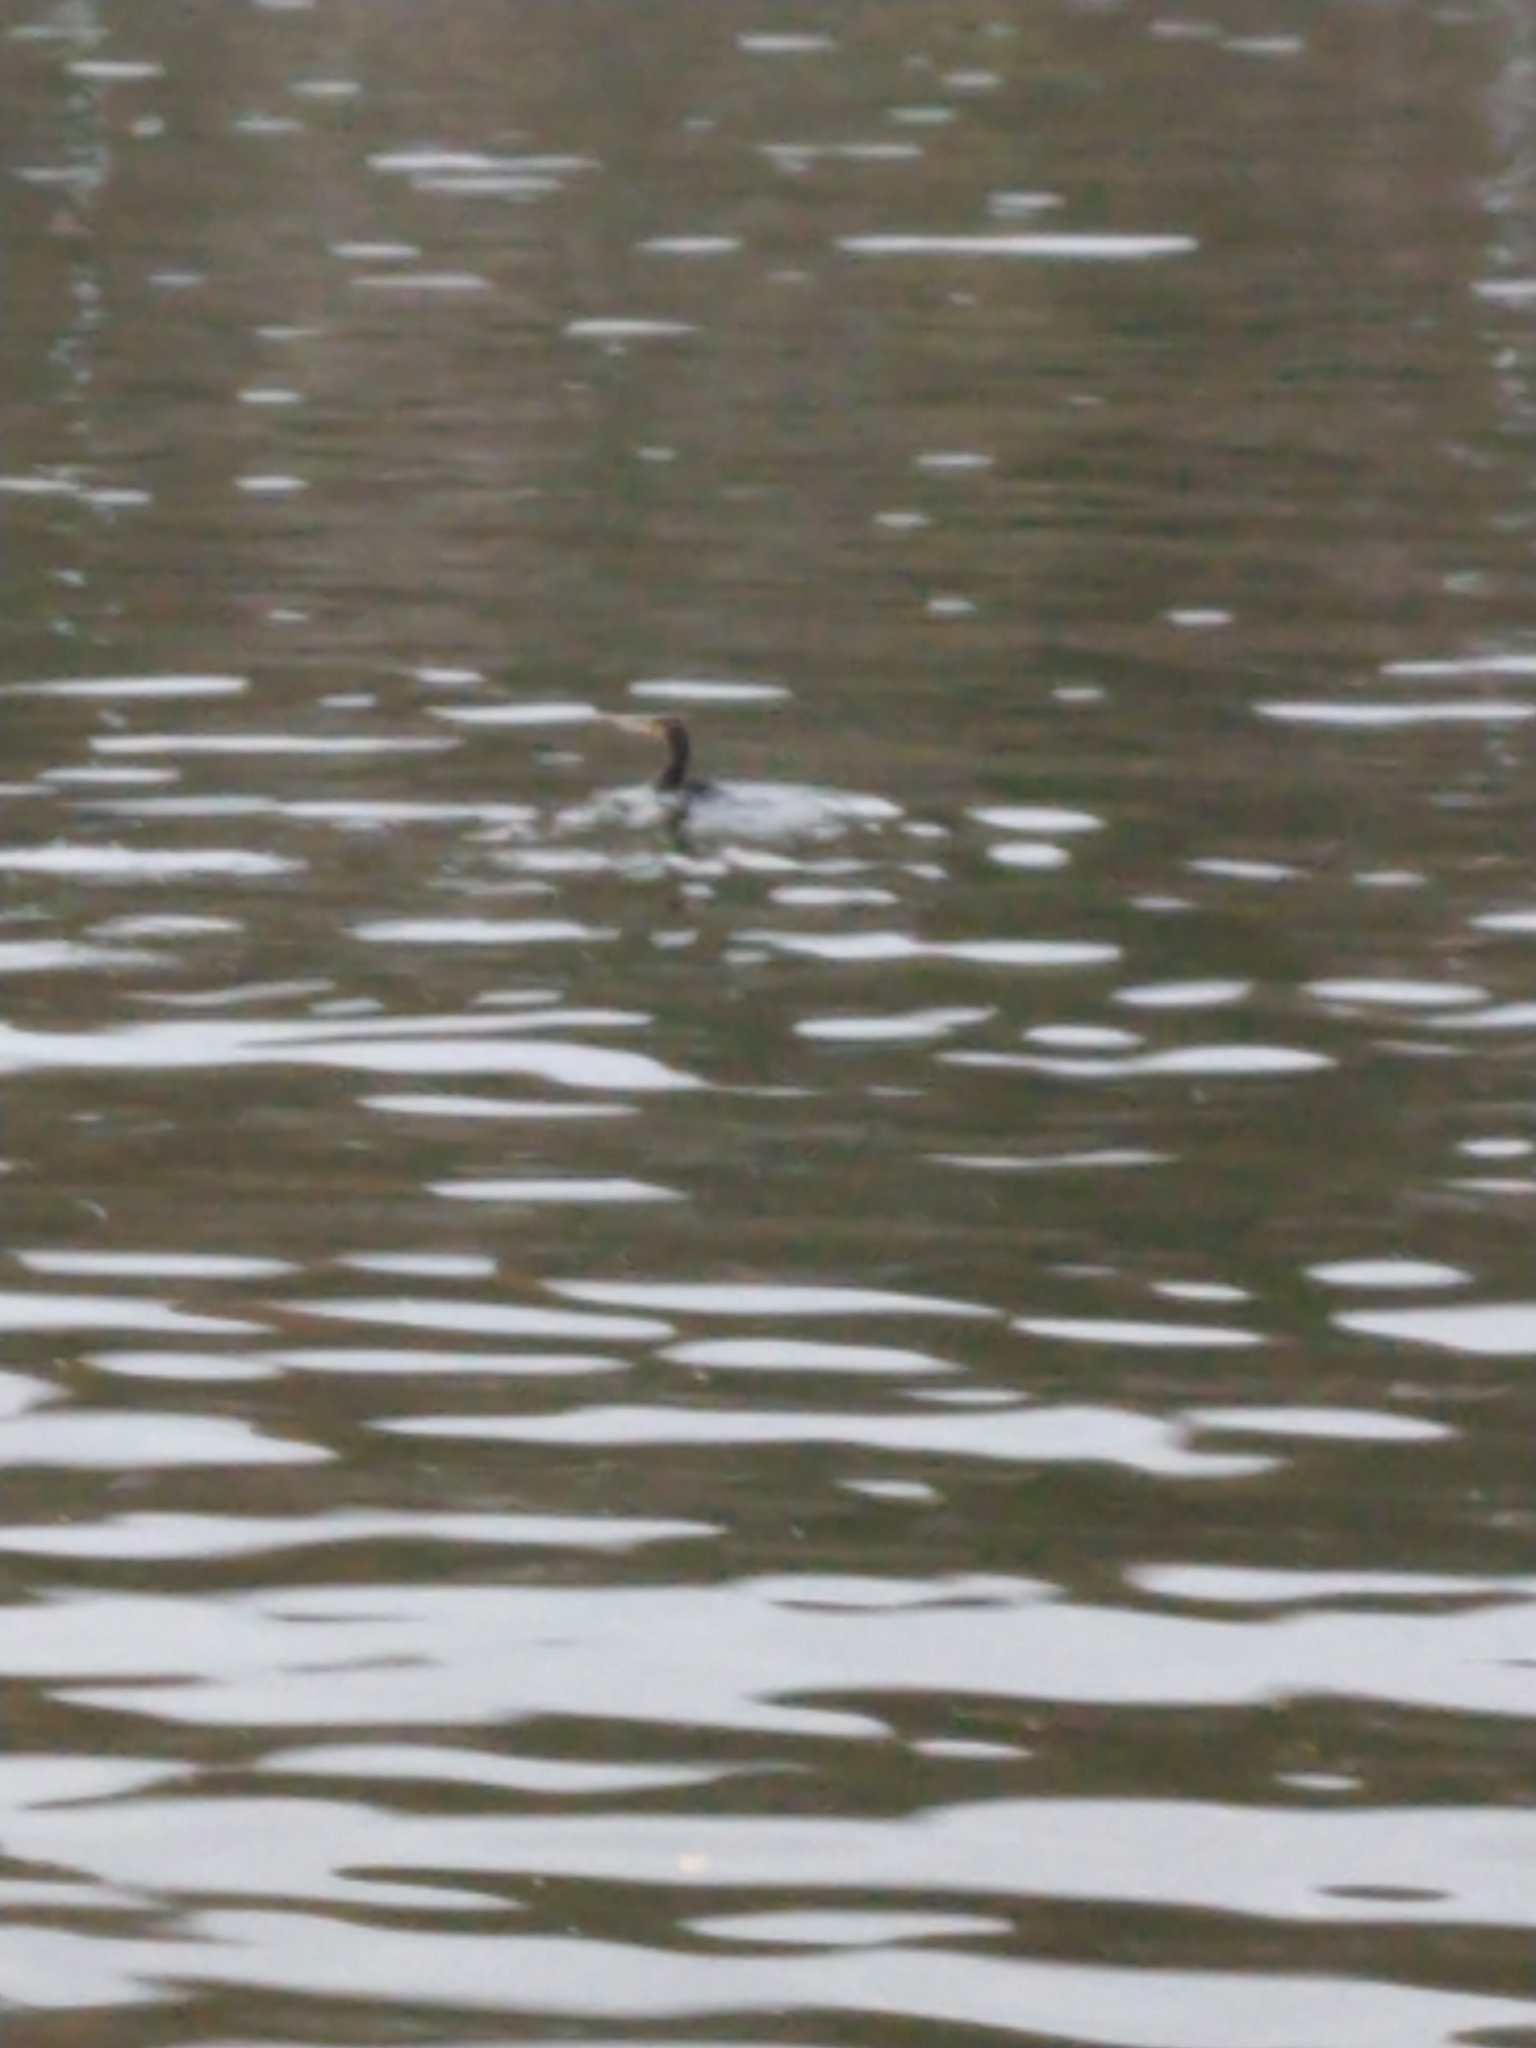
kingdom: Animalia
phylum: Chordata
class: Aves
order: Suliformes
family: Phalacrocoracidae
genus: Phalacrocorax
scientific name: Phalacrocorax carbo
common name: Great cormorant
